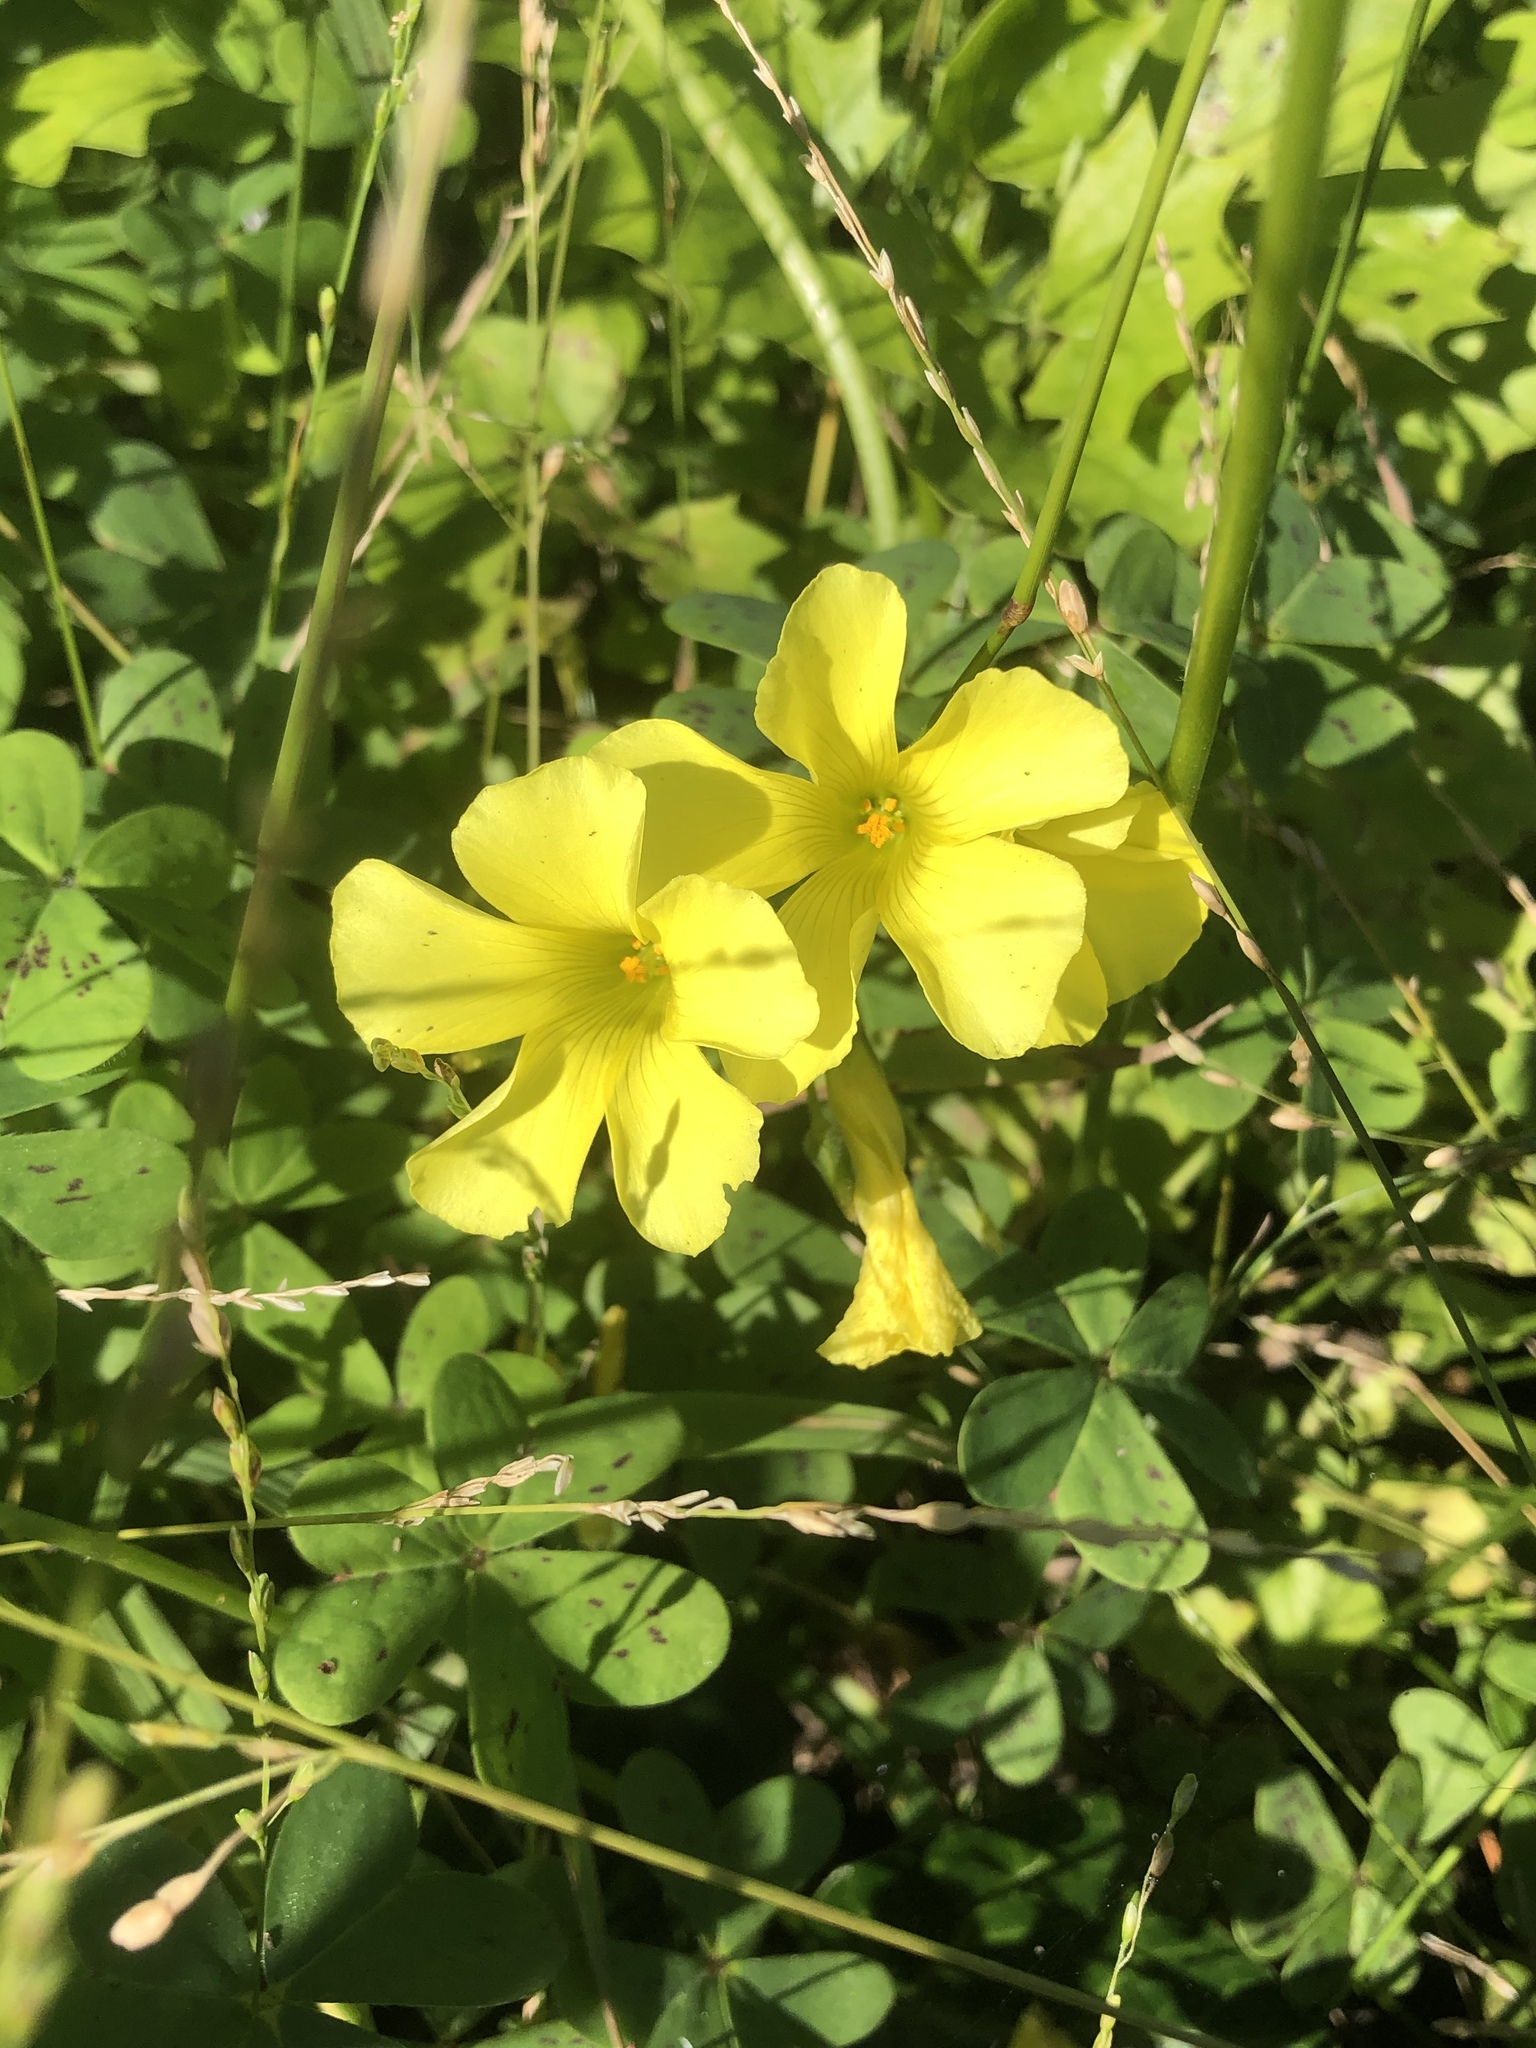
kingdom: Plantae
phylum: Tracheophyta
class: Magnoliopsida
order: Oxalidales
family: Oxalidaceae
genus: Oxalis
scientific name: Oxalis pes-caprae
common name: Bermuda-buttercup
